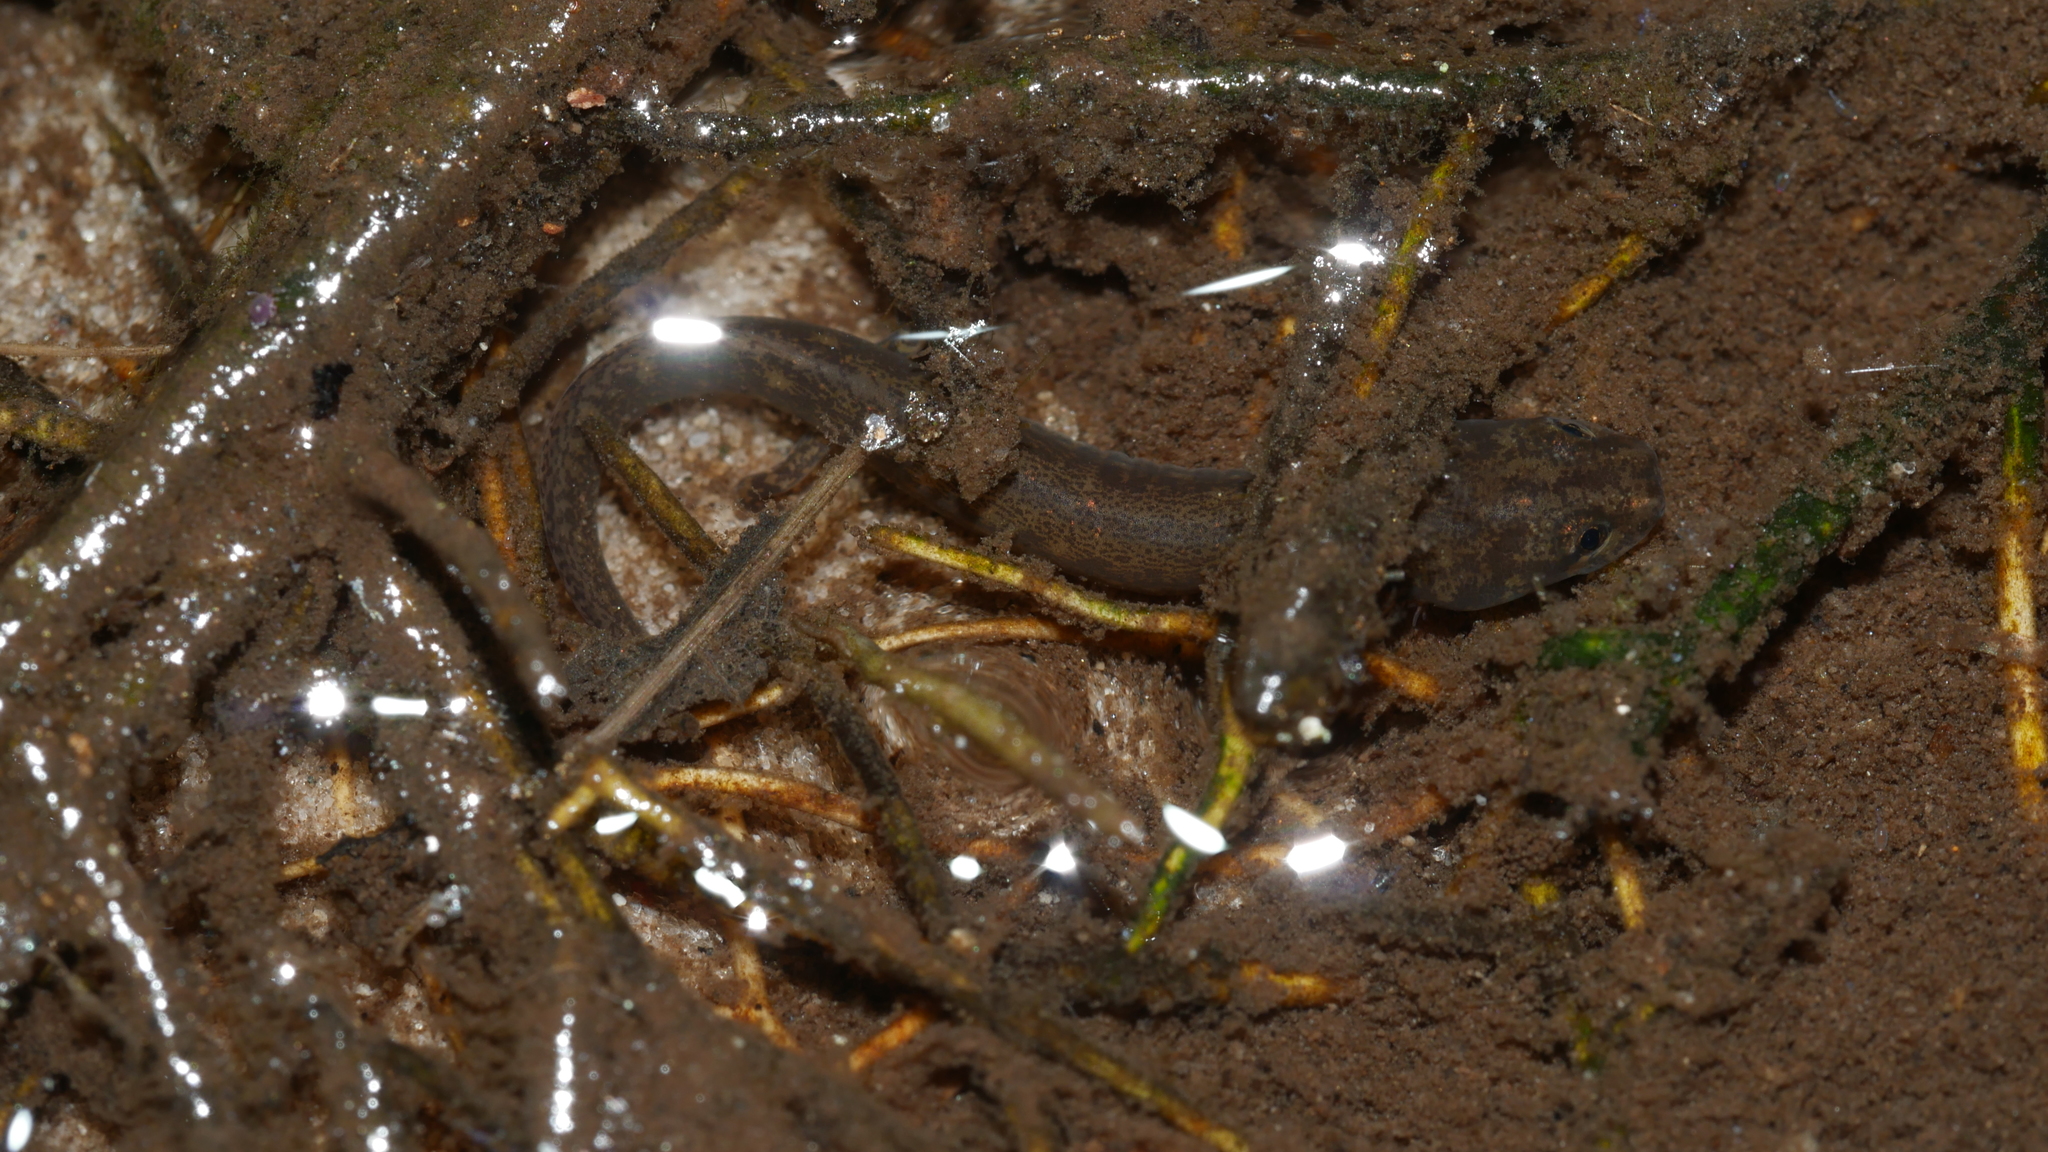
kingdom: Animalia
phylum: Chordata
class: Amphibia
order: Caudata
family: Plethodontidae
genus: Eurycea
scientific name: Eurycea cirrigera
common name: Southern two-lined salamander
